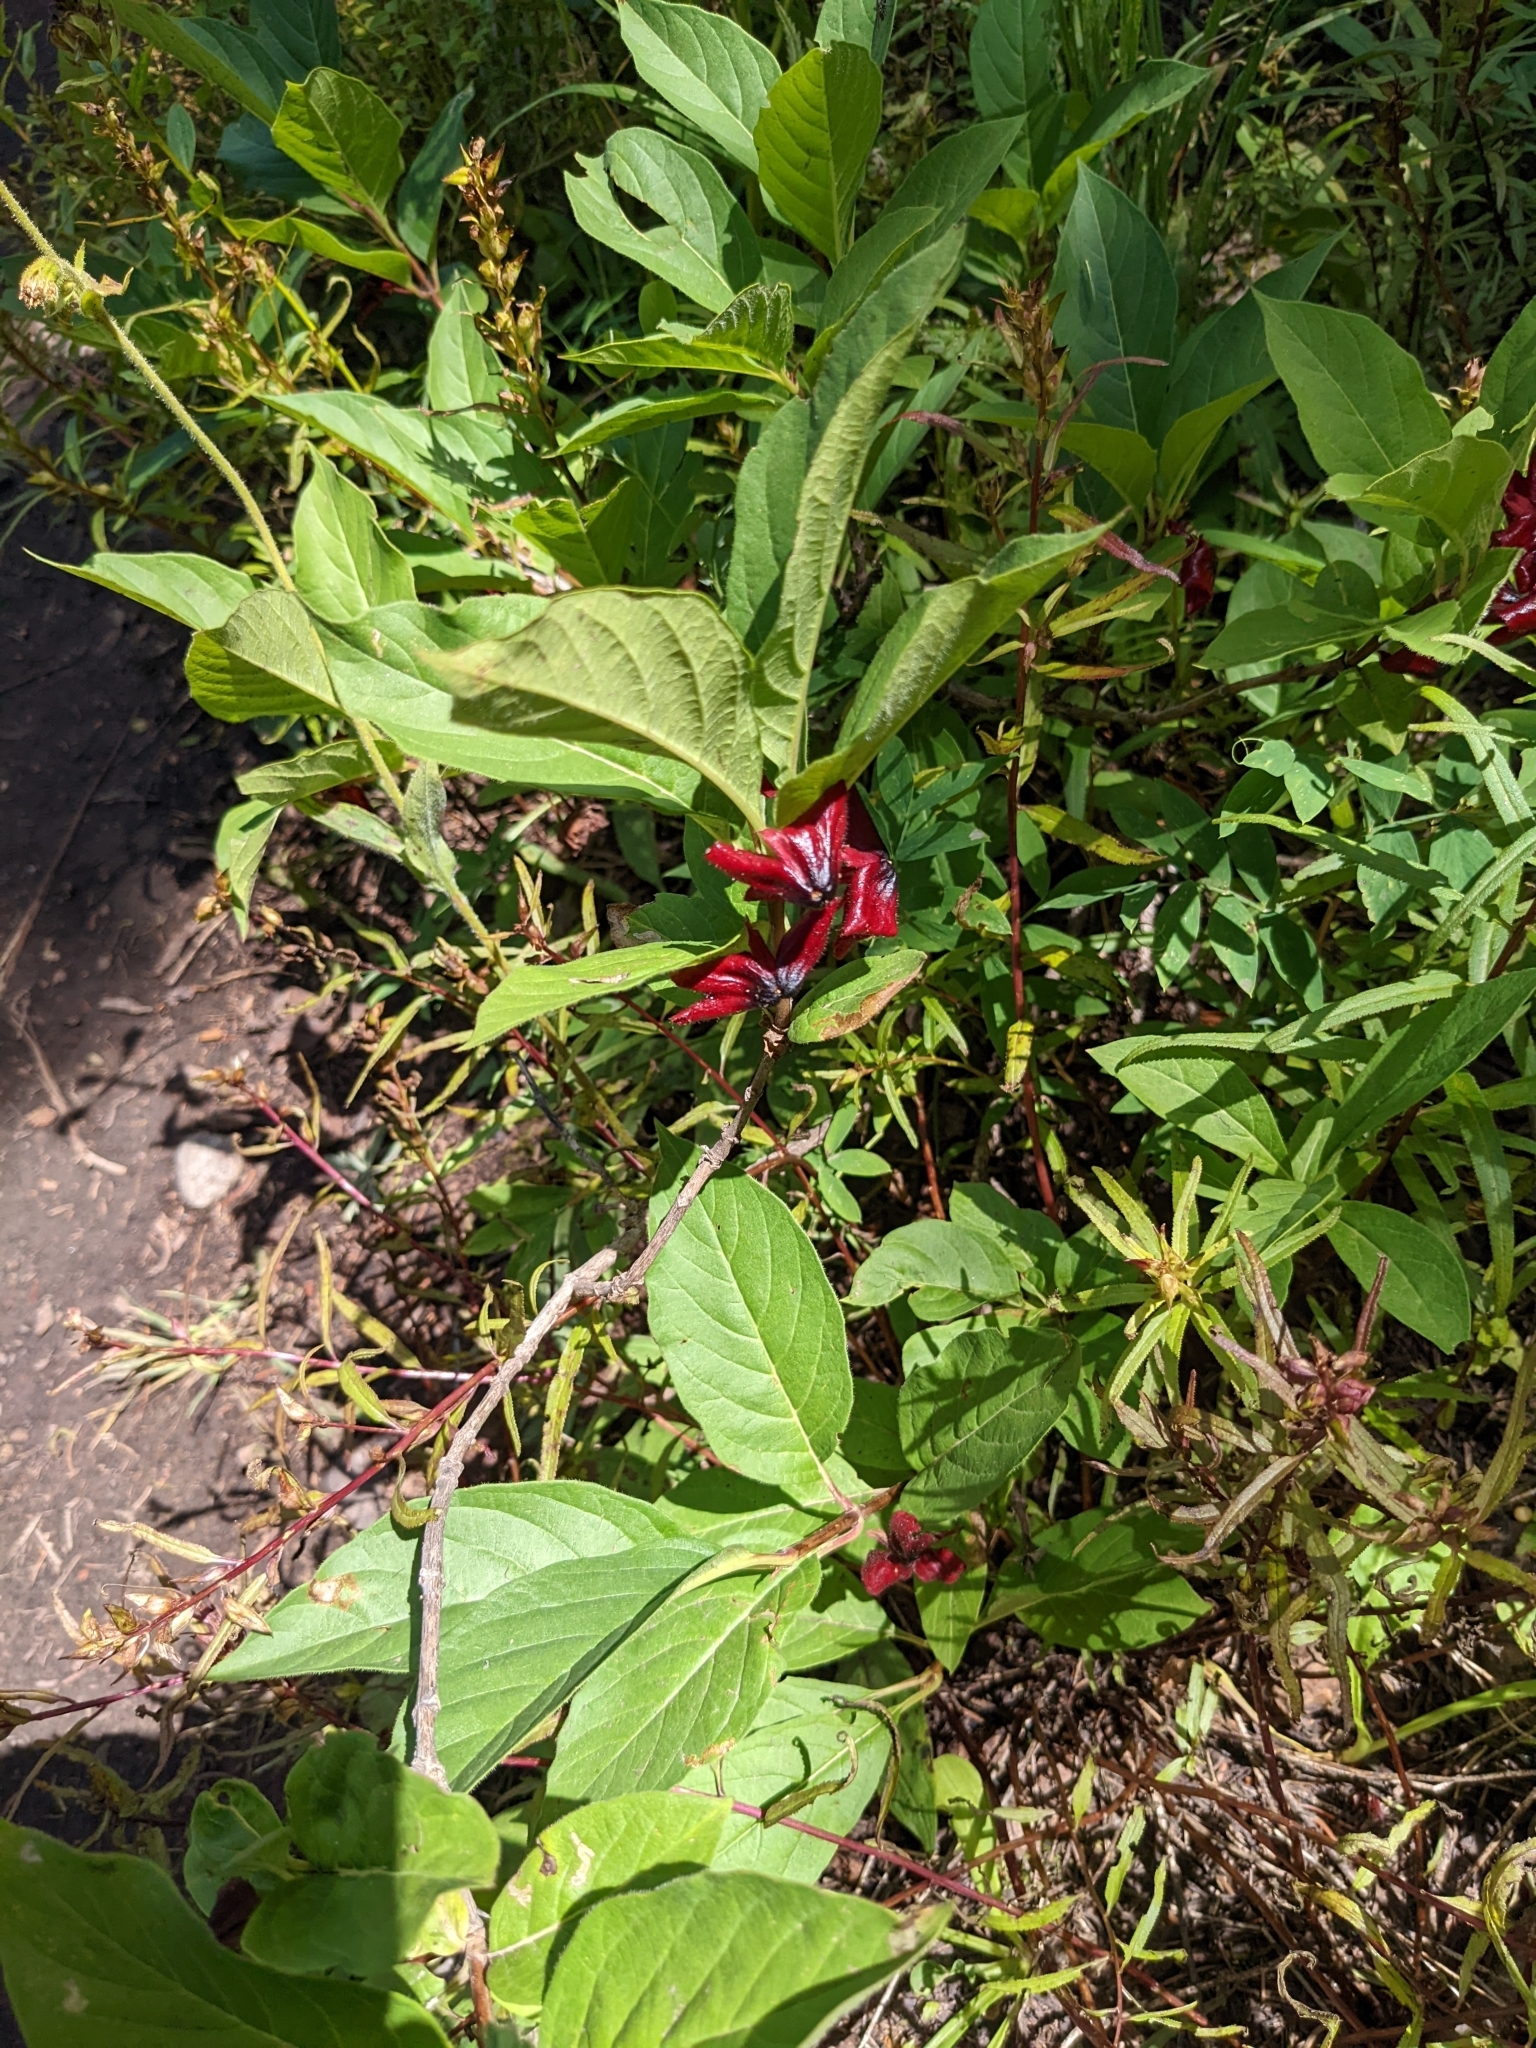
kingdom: Plantae
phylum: Tracheophyta
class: Magnoliopsida
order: Dipsacales
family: Caprifoliaceae
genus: Lonicera
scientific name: Lonicera involucrata
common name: Californian honeysuckle
